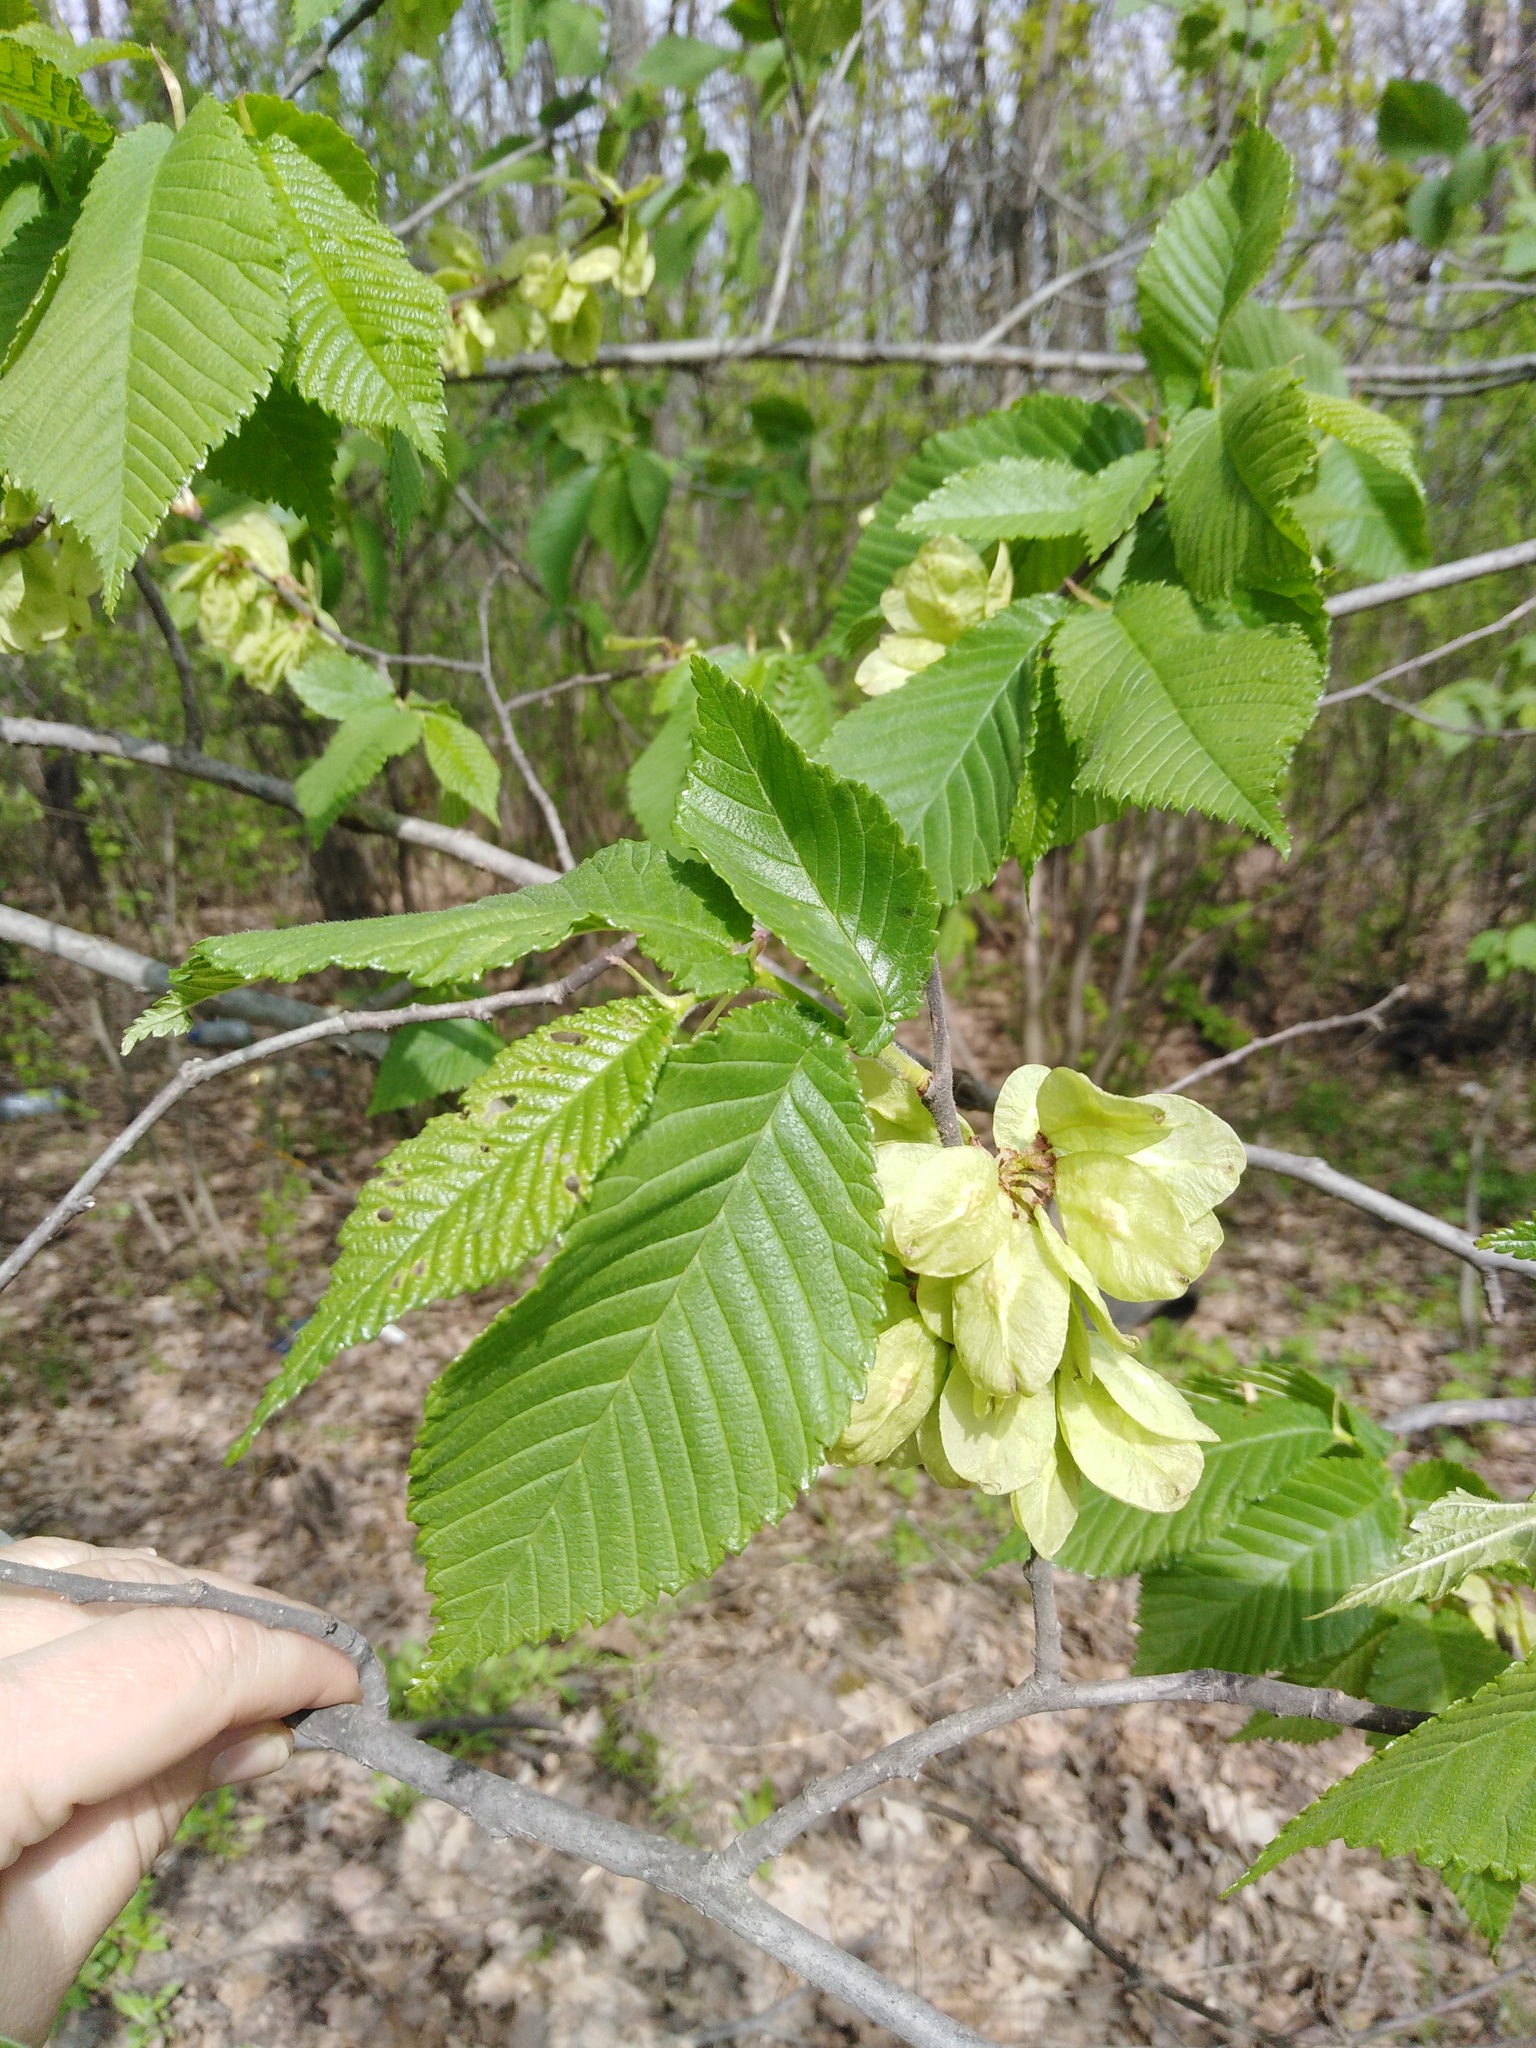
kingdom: Plantae
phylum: Tracheophyta
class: Magnoliopsida
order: Rosales
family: Ulmaceae
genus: Ulmus
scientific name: Ulmus glabra
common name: Wych elm
